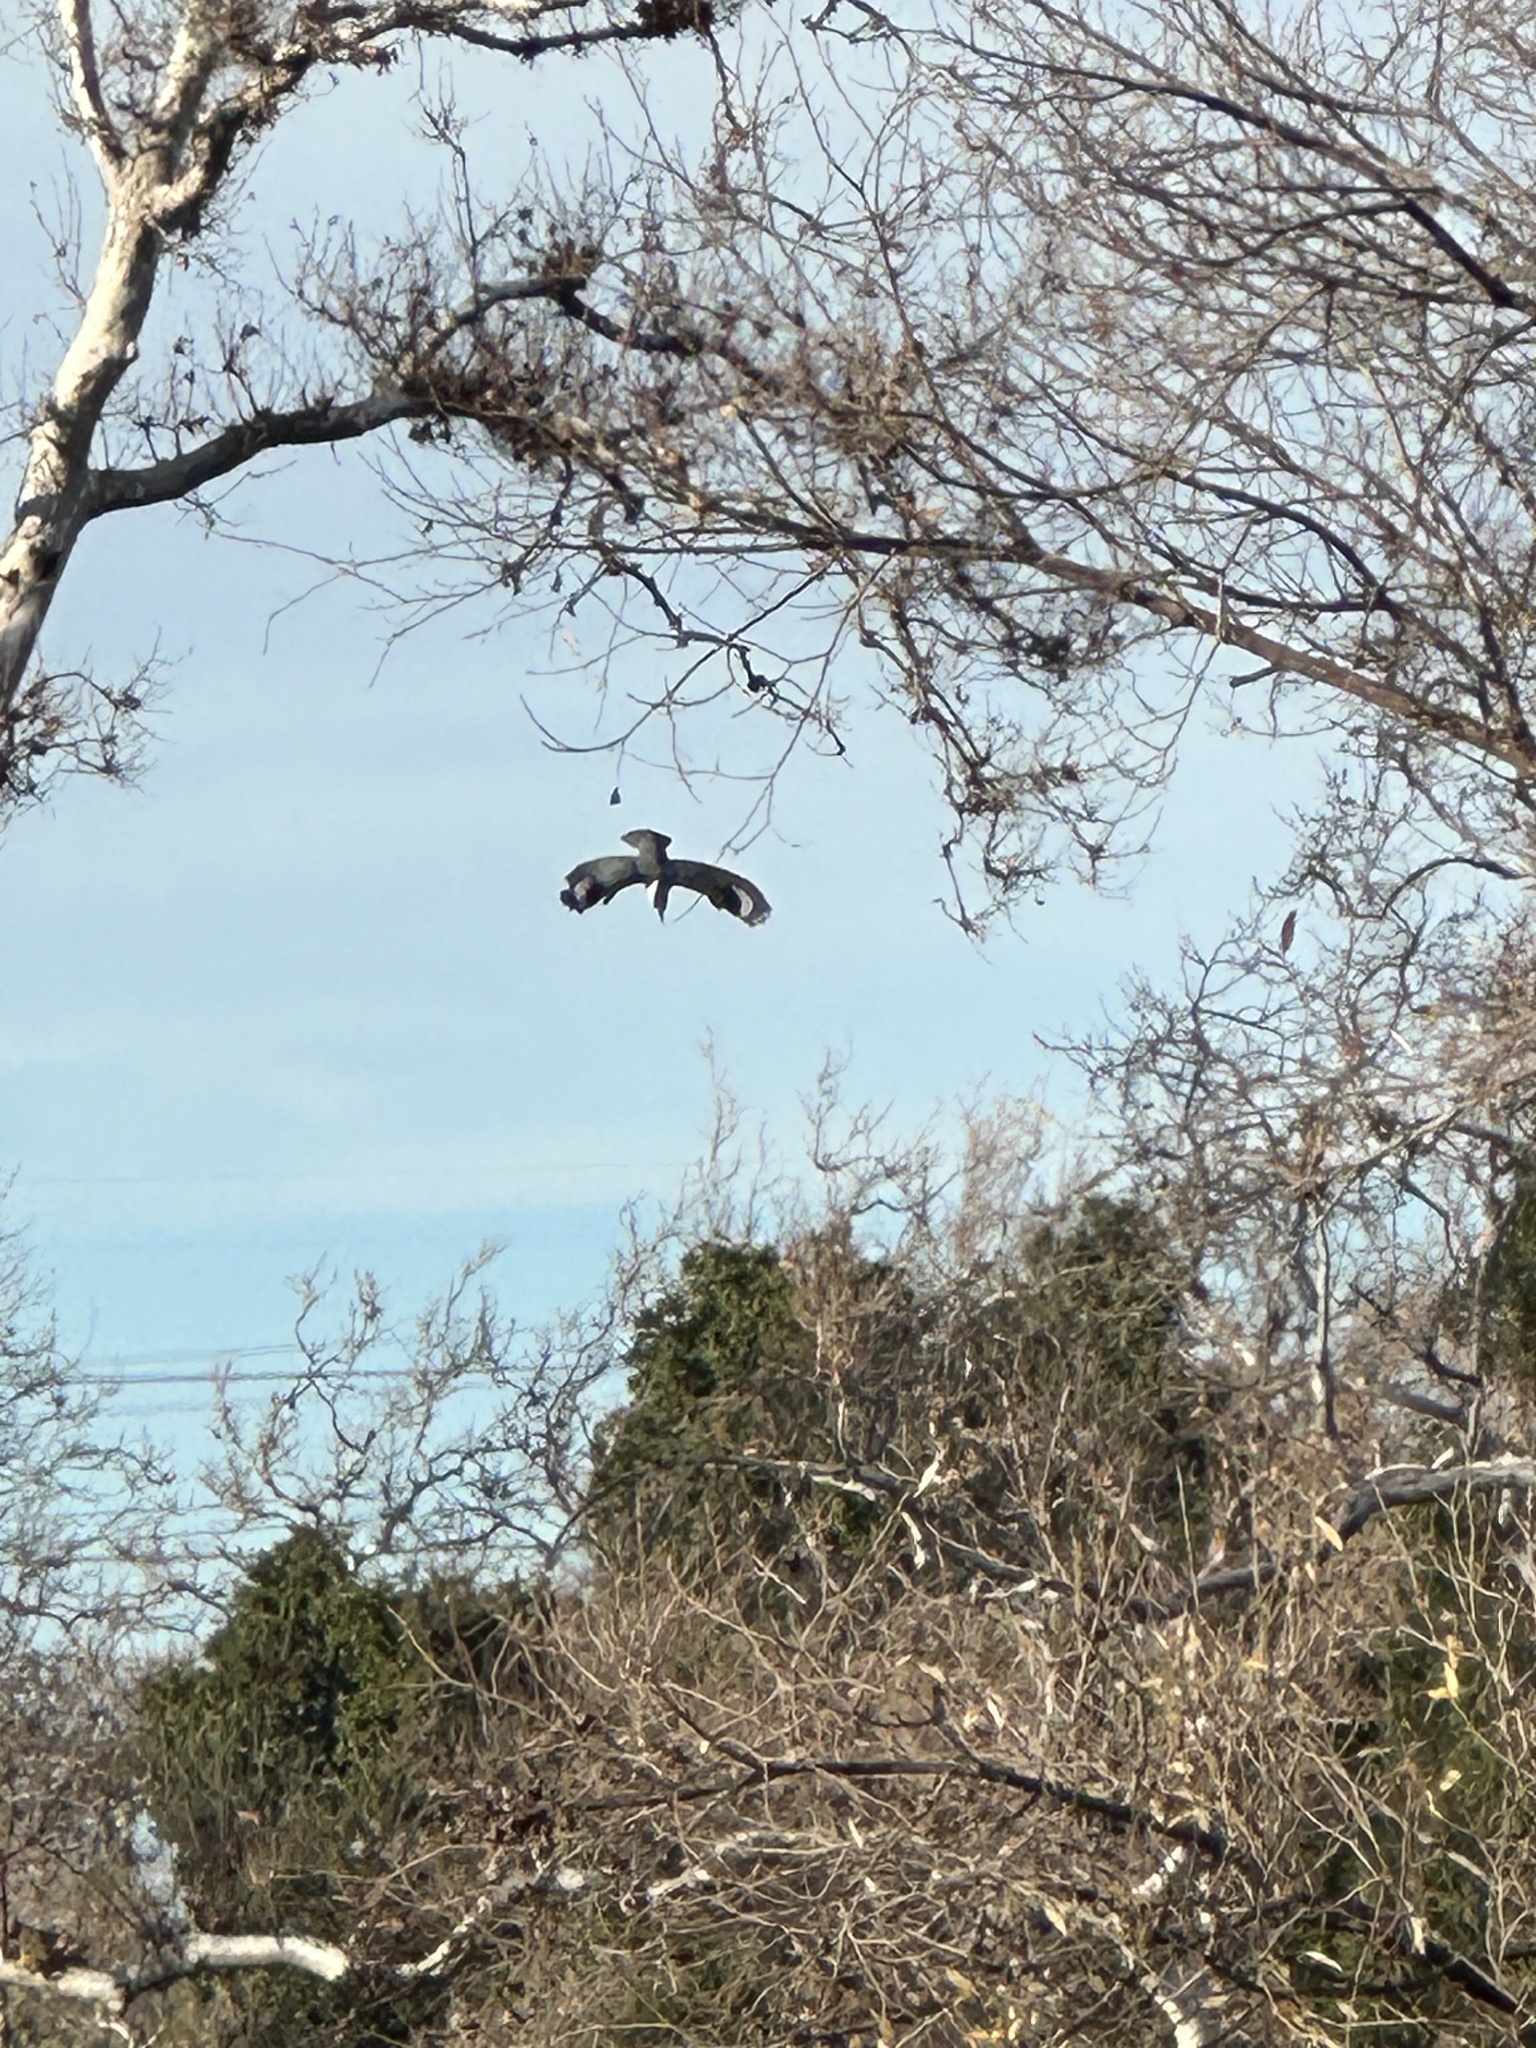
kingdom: Animalia
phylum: Chordata
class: Aves
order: Coraciiformes
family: Alcedinidae
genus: Megaceryle
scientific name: Megaceryle alcyon
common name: Belted kingfisher
